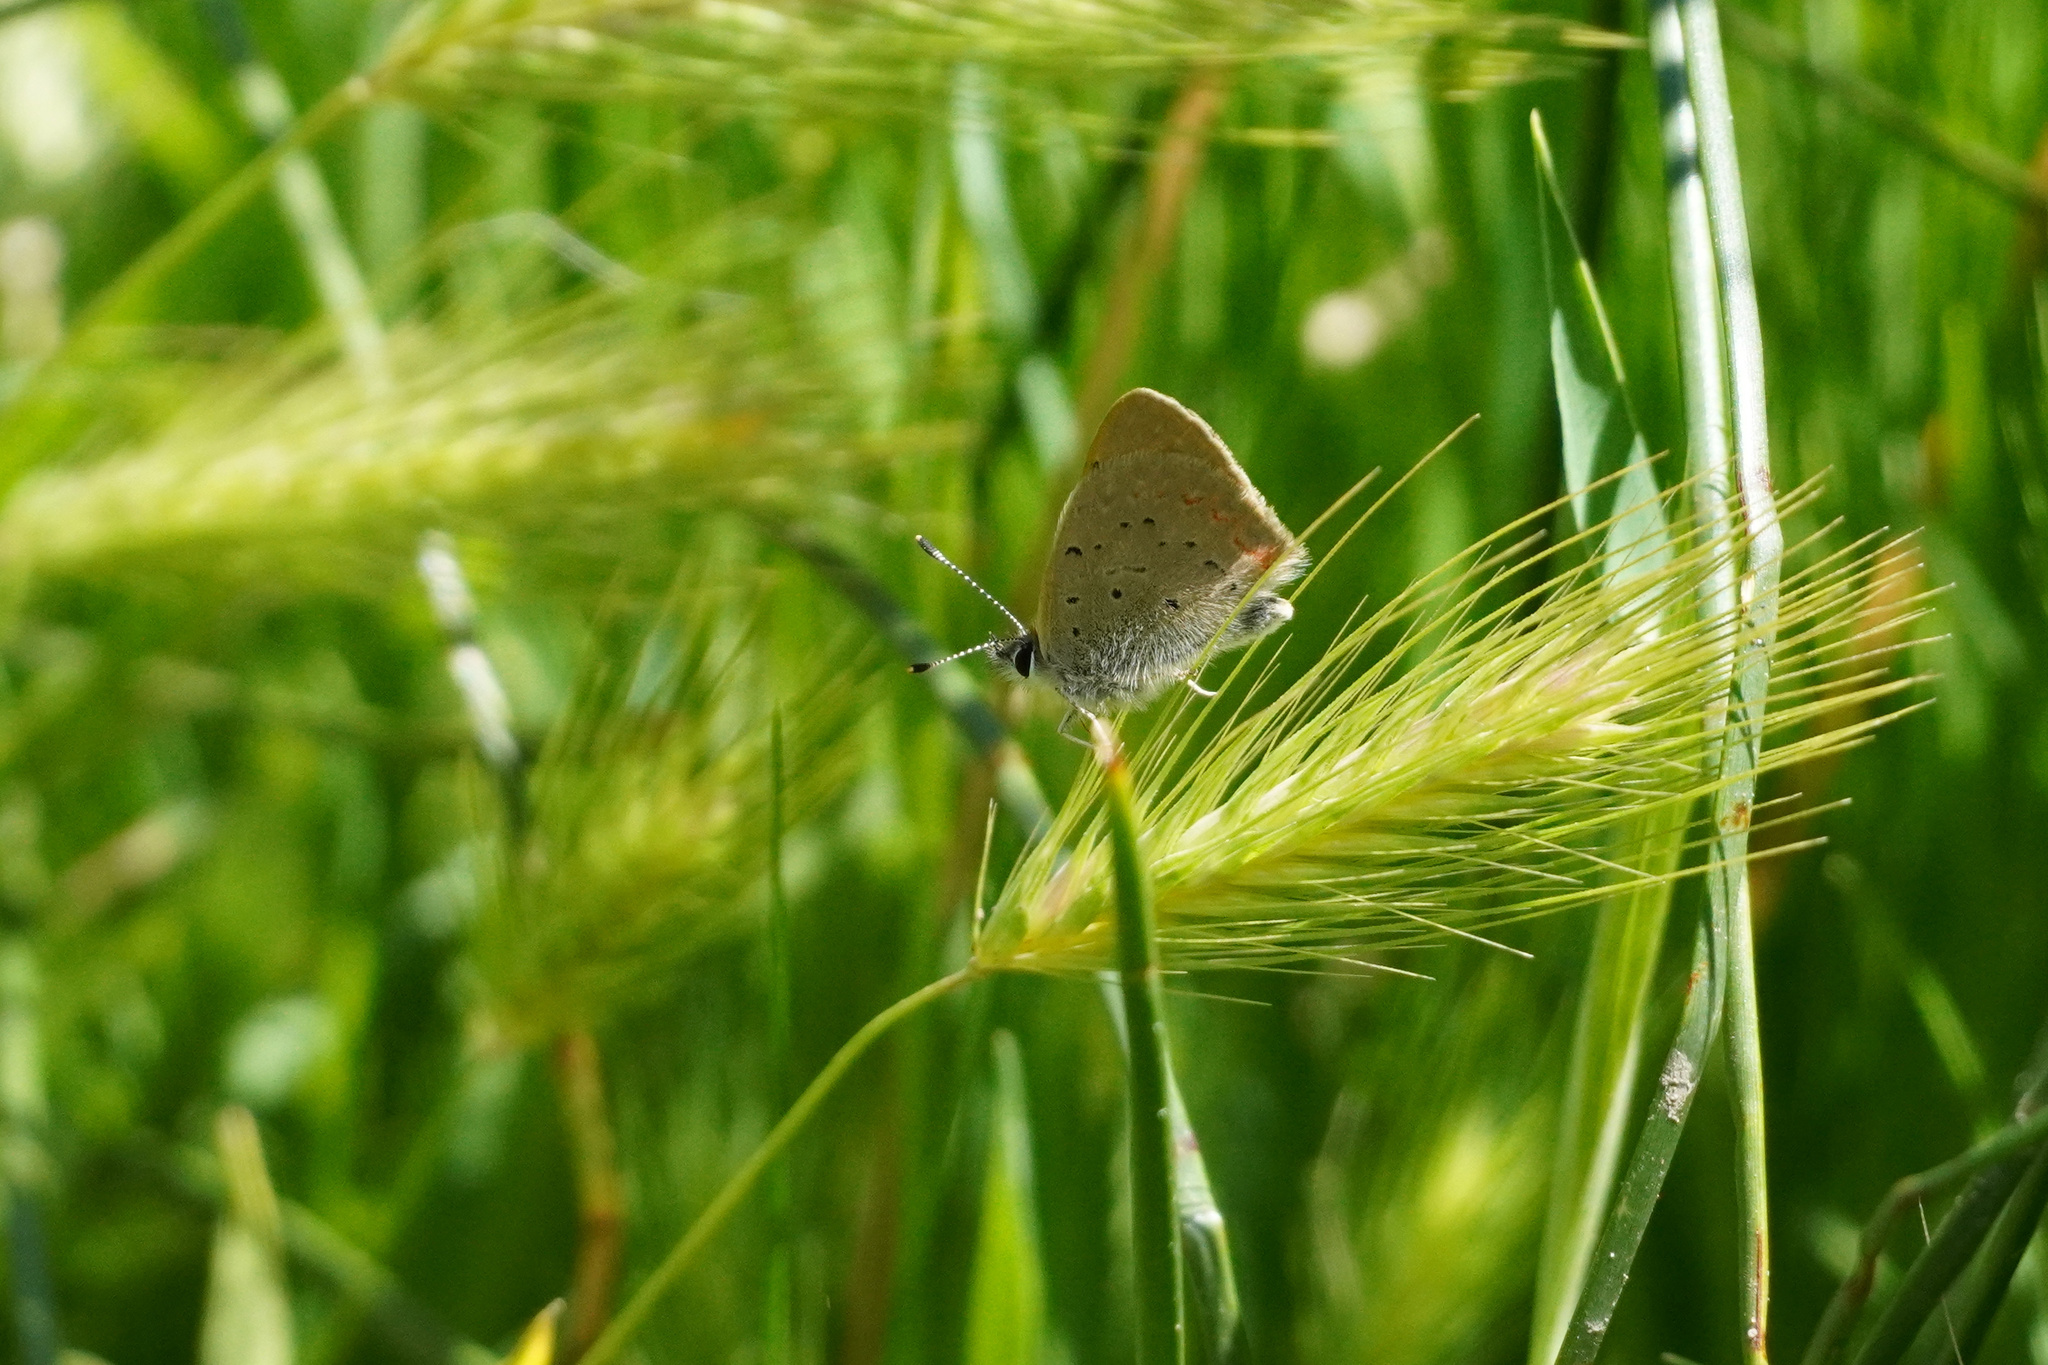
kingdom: Animalia
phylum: Arthropoda
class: Insecta
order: Lepidoptera
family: Lycaenidae
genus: Tharsalea
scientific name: Tharsalea helloides
